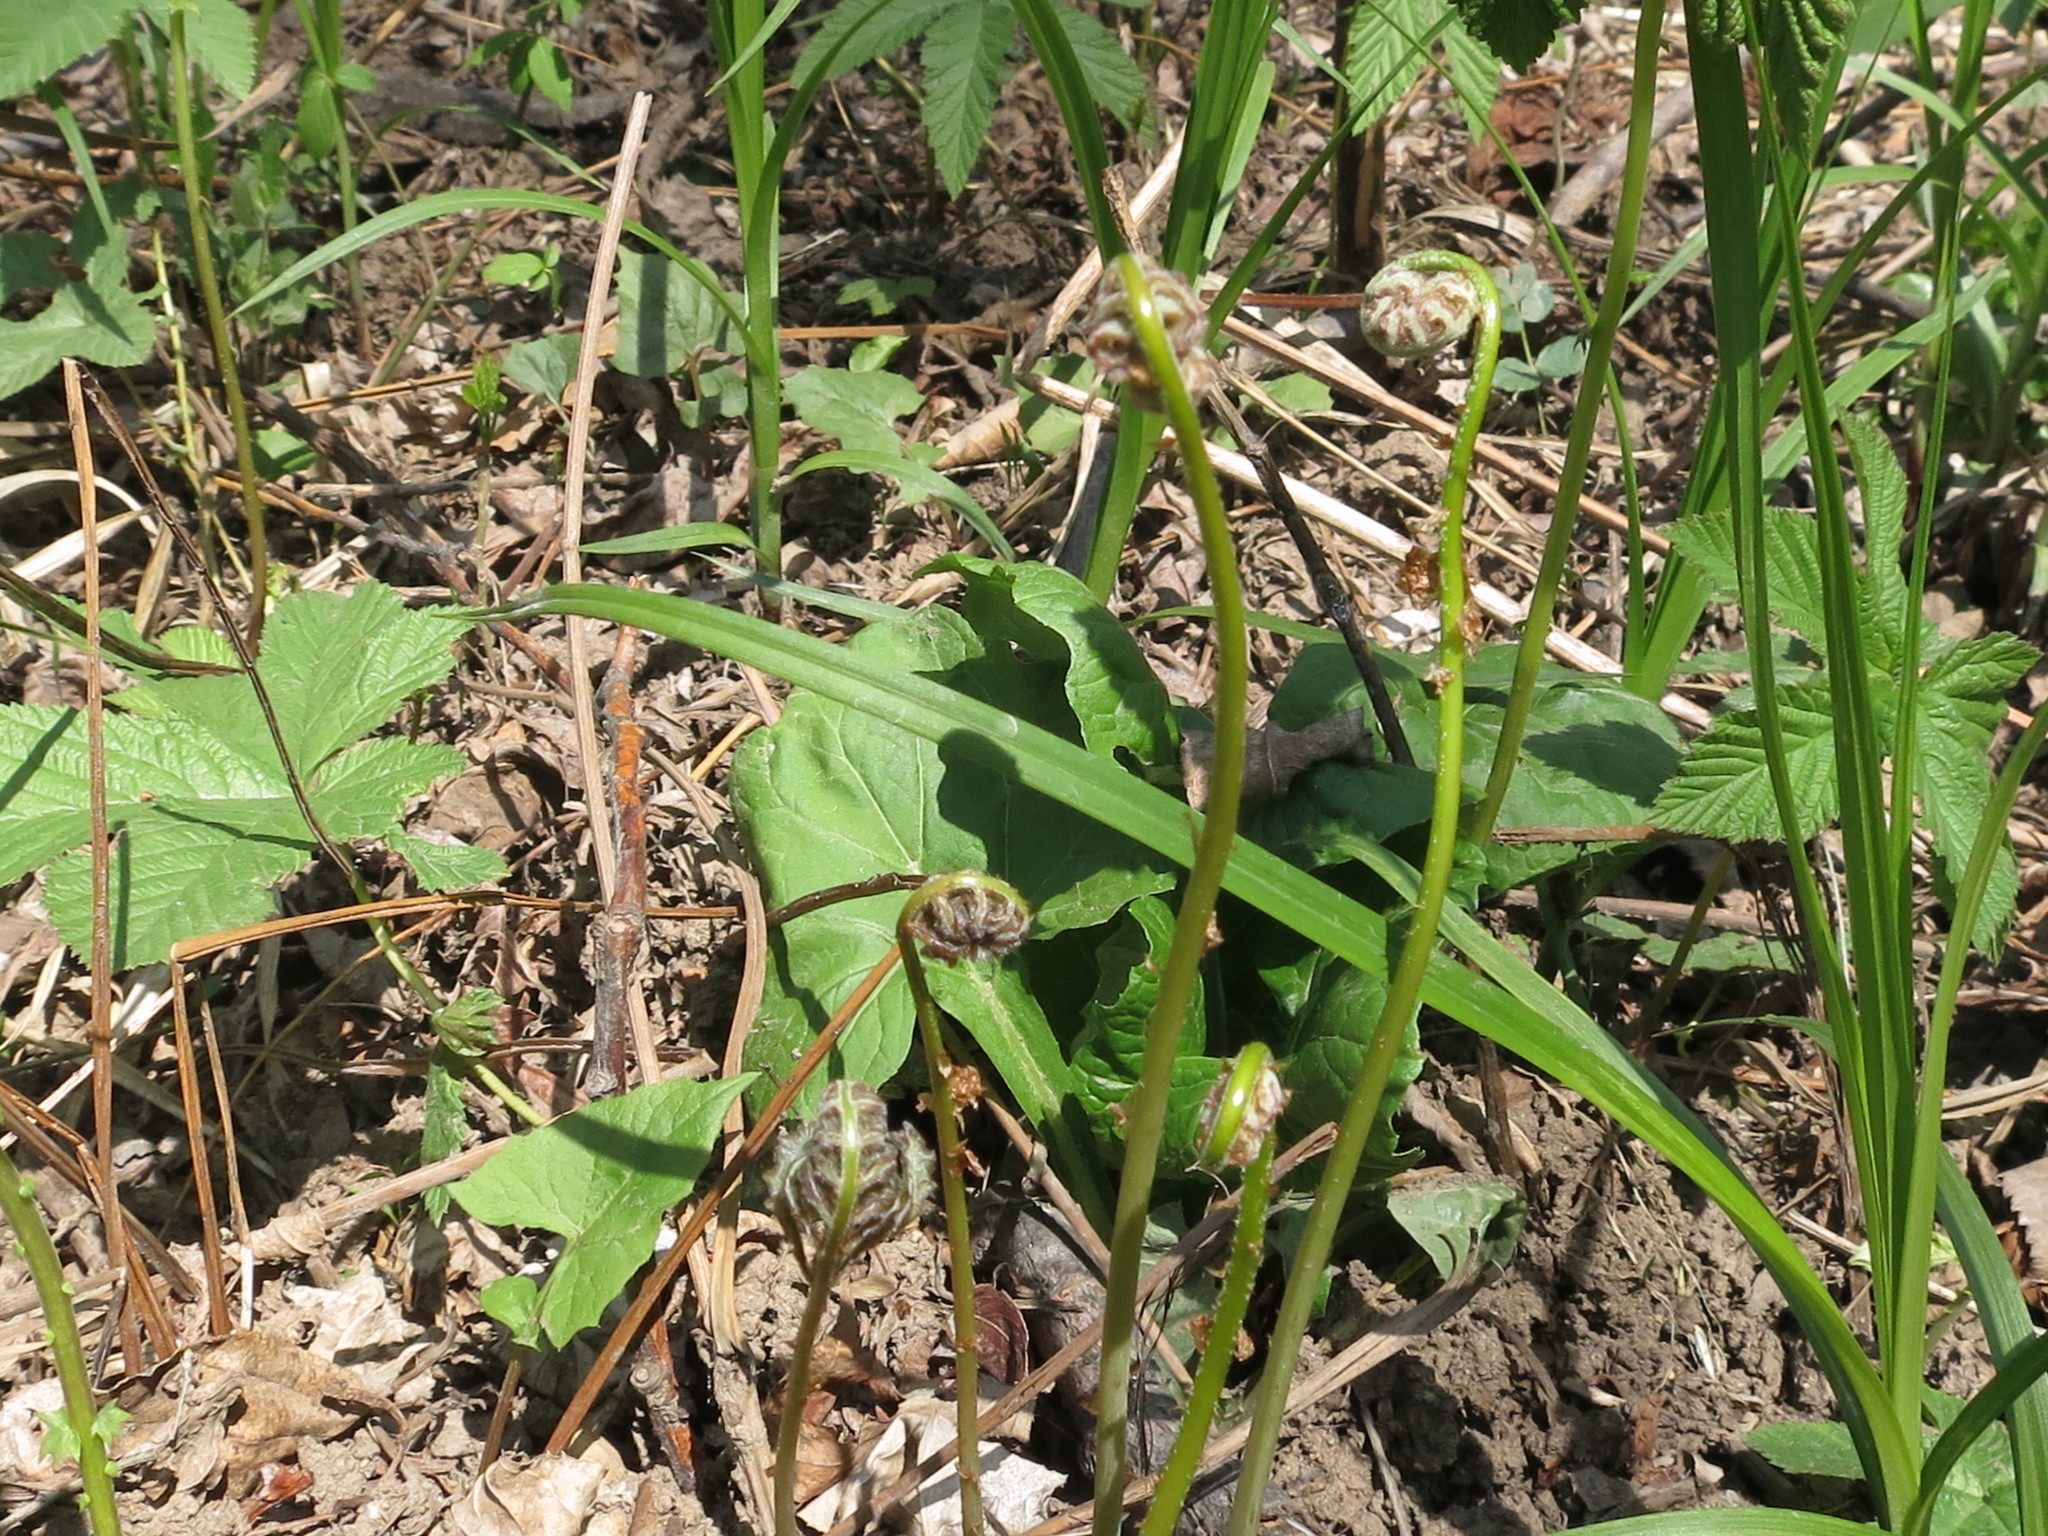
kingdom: Plantae
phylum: Tracheophyta
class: Polypodiopsida
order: Polypodiales
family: Onocleaceae
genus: Onoclea
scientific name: Onoclea sensibilis
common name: Sensitive fern
